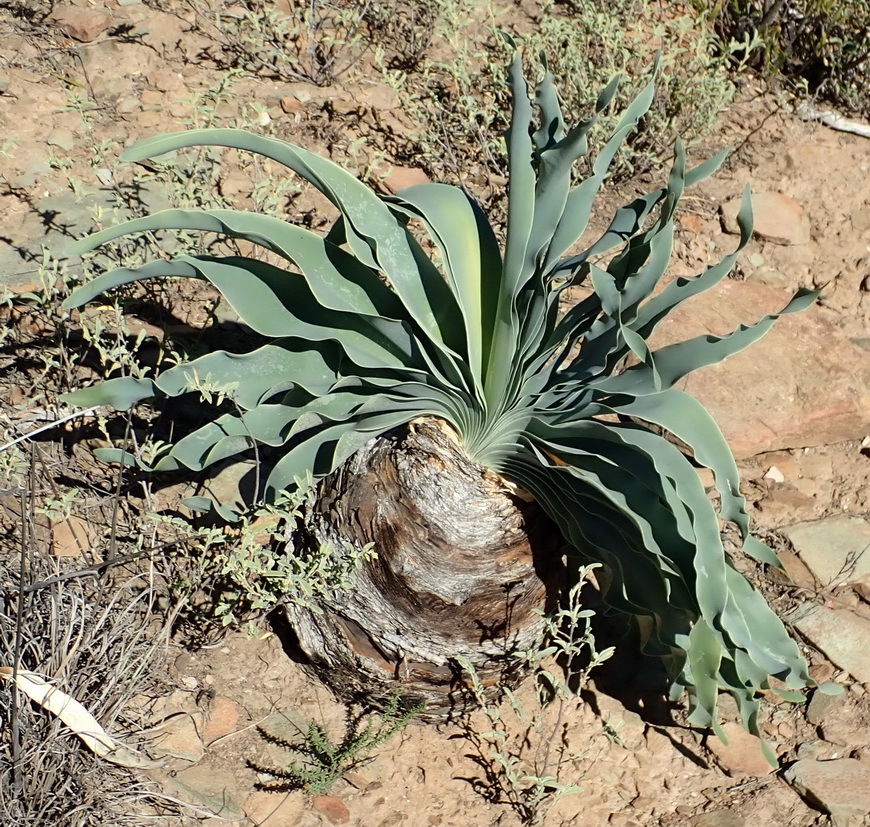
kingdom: Plantae
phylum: Tracheophyta
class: Liliopsida
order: Asparagales
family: Amaryllidaceae
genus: Boophone
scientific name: Boophone disticha
